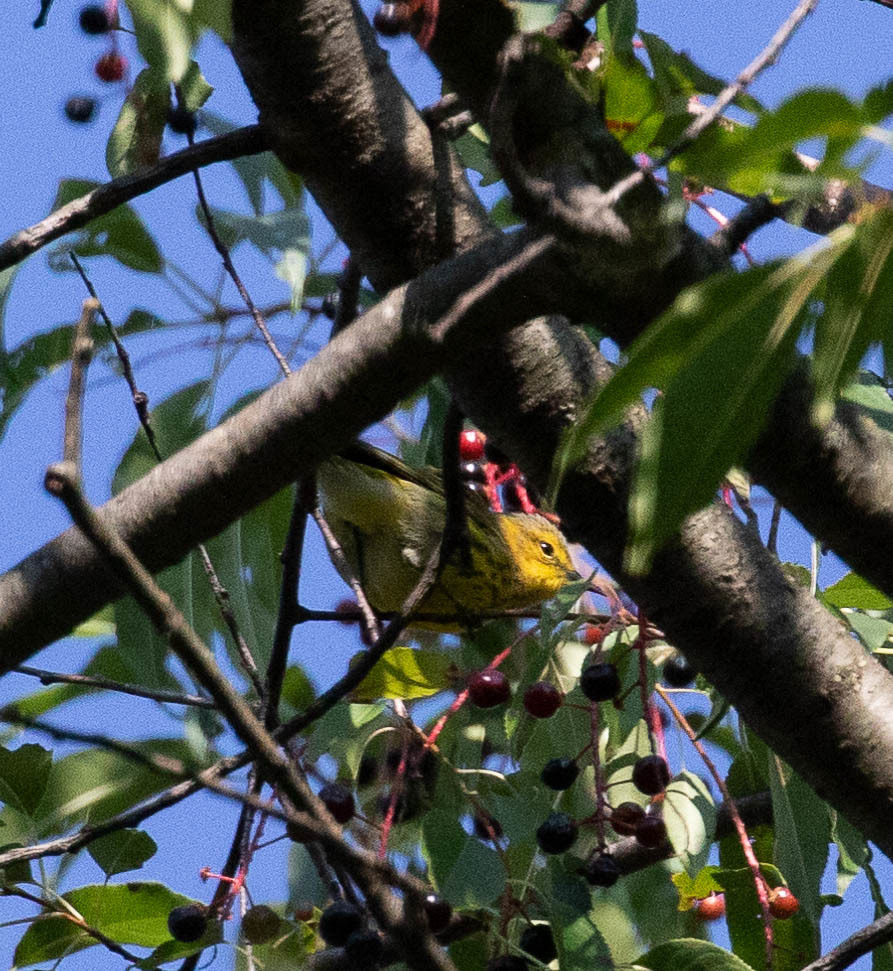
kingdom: Animalia
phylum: Chordata
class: Aves
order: Passeriformes
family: Parulidae
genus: Setophaga
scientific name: Setophaga tigrina
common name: Cape may warbler
